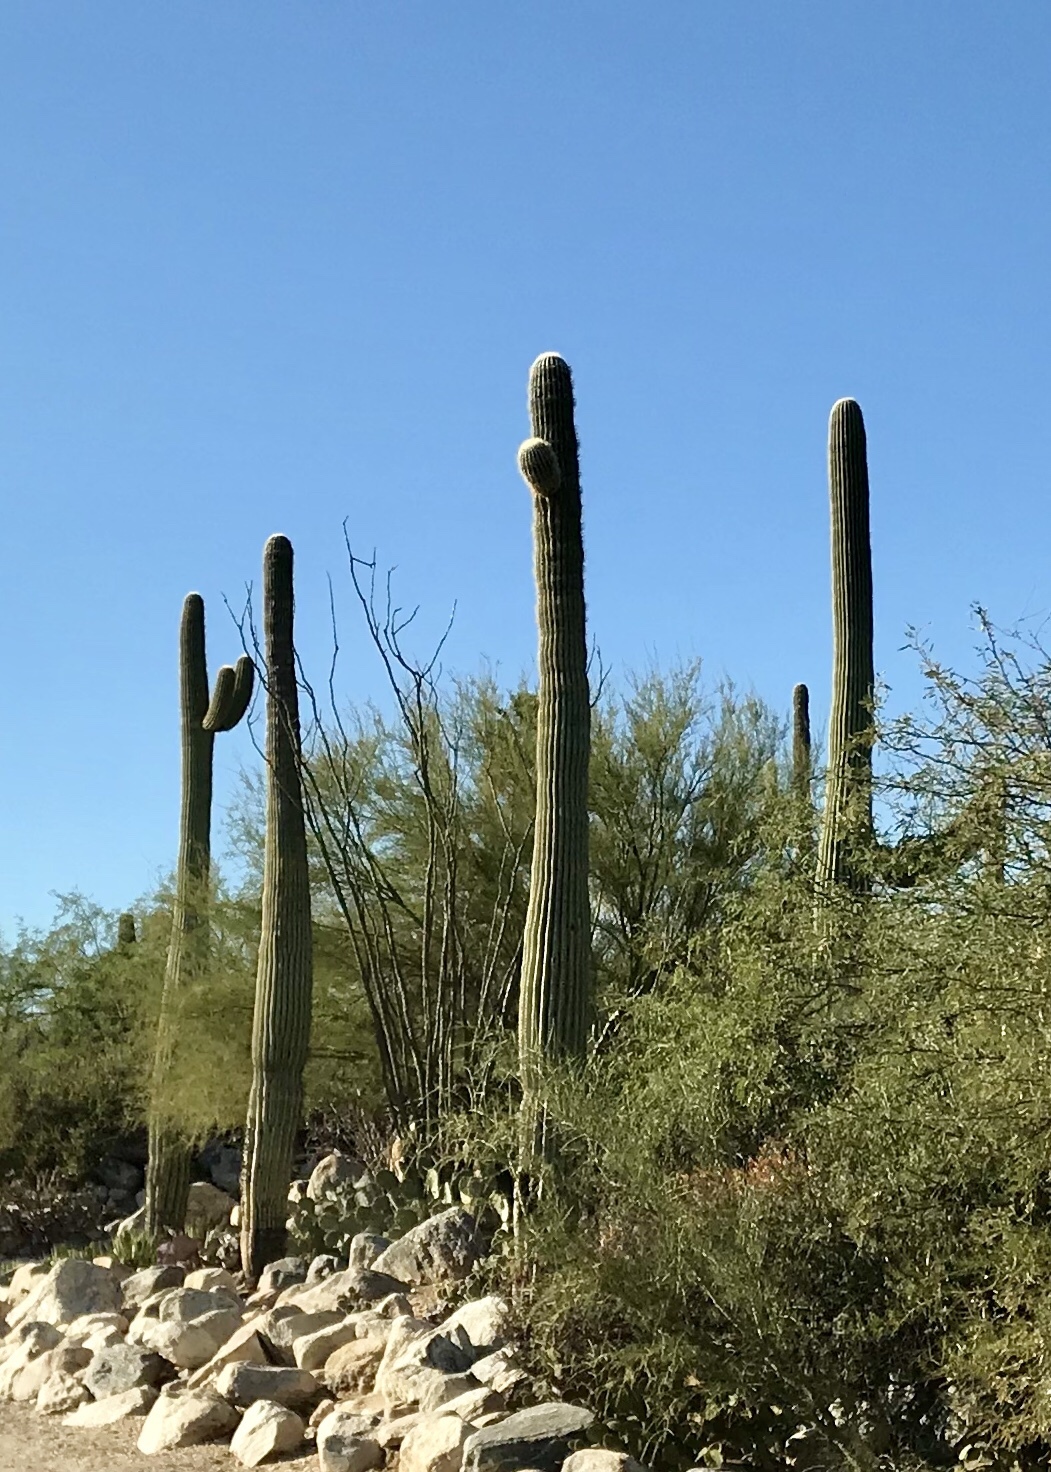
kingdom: Plantae
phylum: Tracheophyta
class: Magnoliopsida
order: Caryophyllales
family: Cactaceae
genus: Carnegiea
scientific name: Carnegiea gigantea
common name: Saguaro
